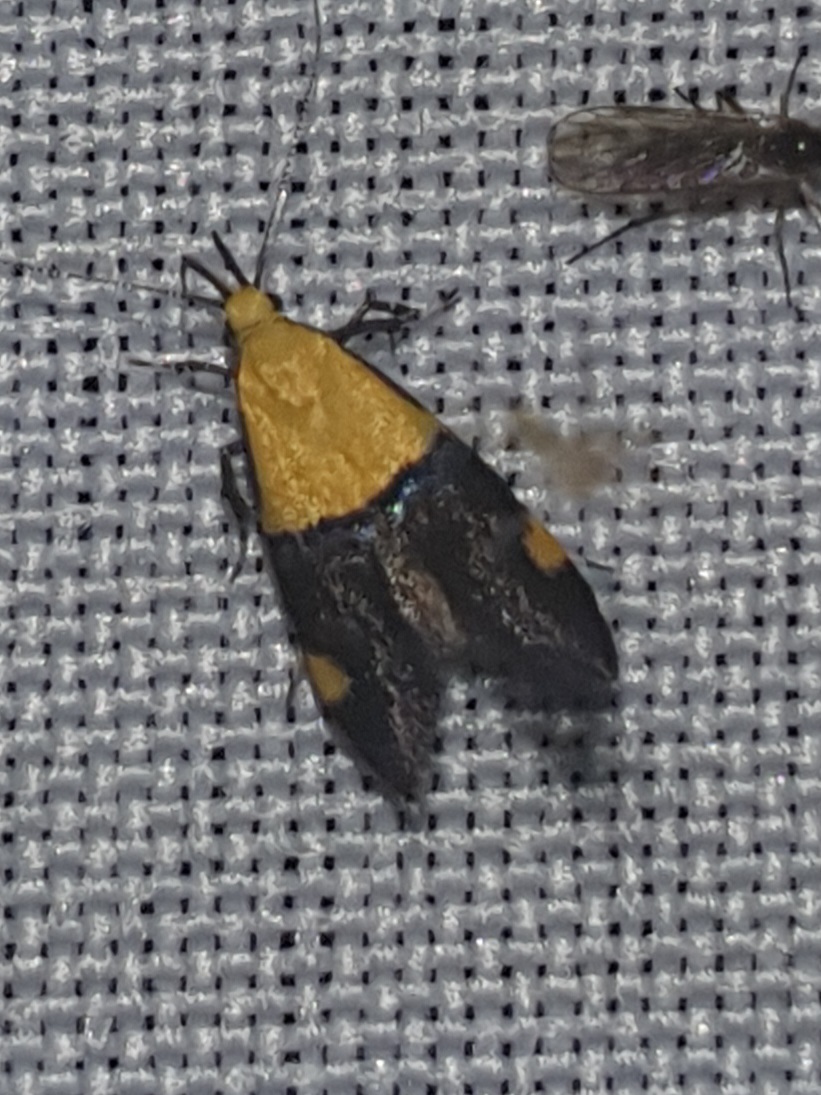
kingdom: Animalia
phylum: Arthropoda
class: Insecta
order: Lepidoptera
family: Oecophoridae
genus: Oecophora
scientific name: Oecophora bractella
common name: Gold-base tubic
